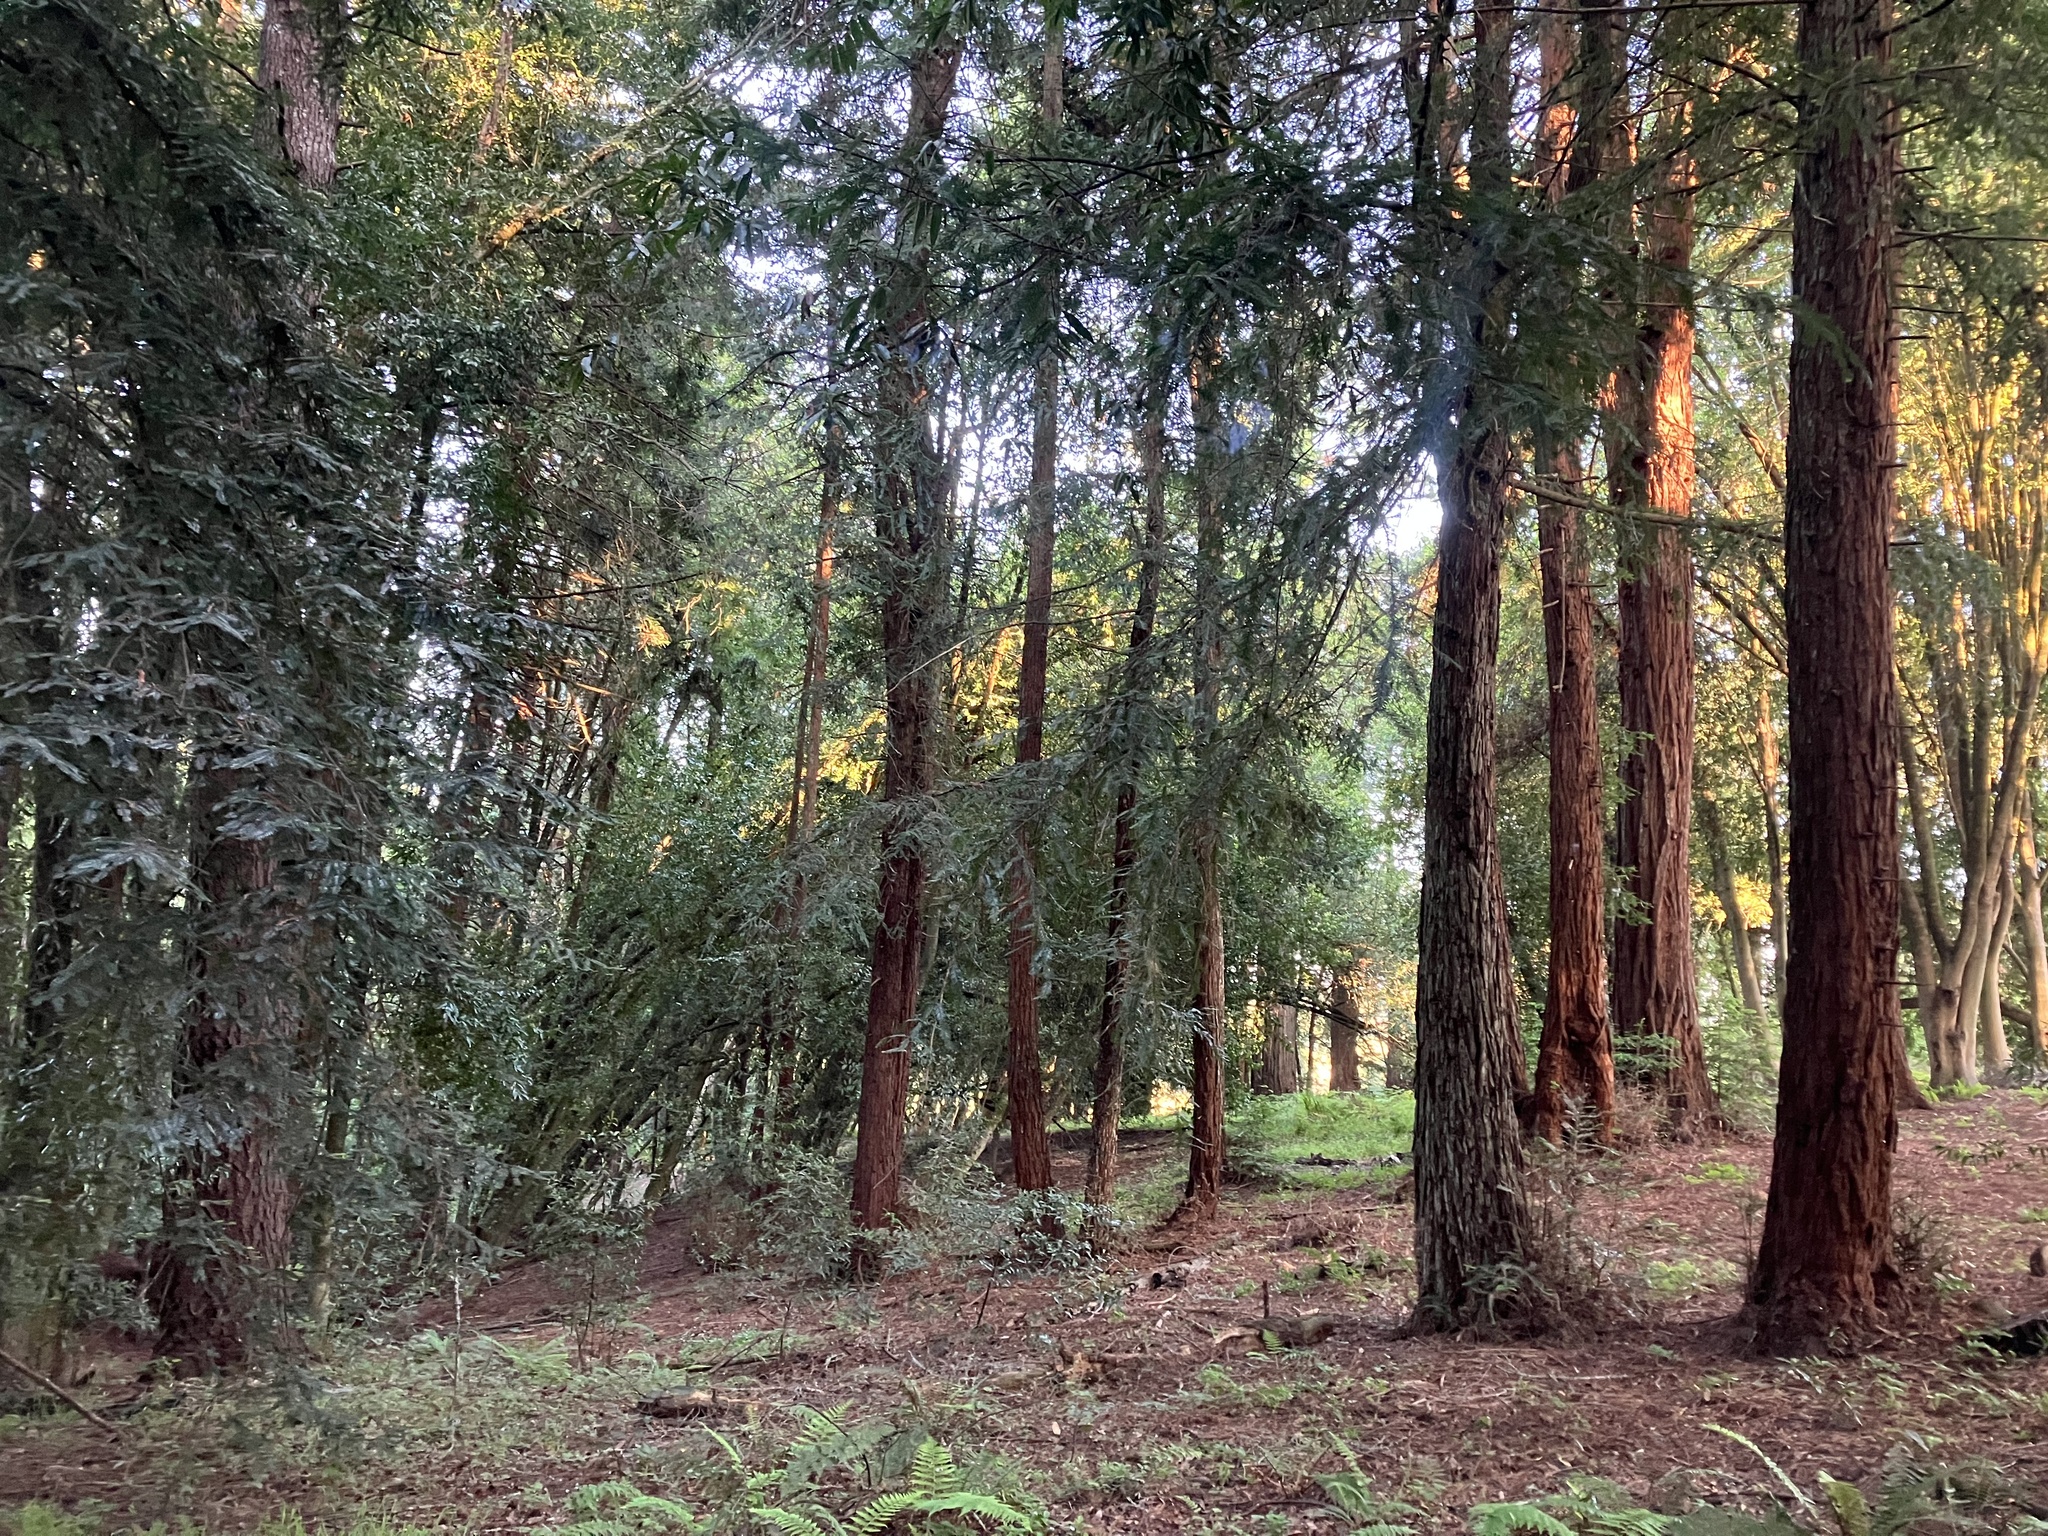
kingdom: Plantae
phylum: Tracheophyta
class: Pinopsida
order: Pinales
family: Cupressaceae
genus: Sequoia
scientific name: Sequoia sempervirens
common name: Coast redwood
